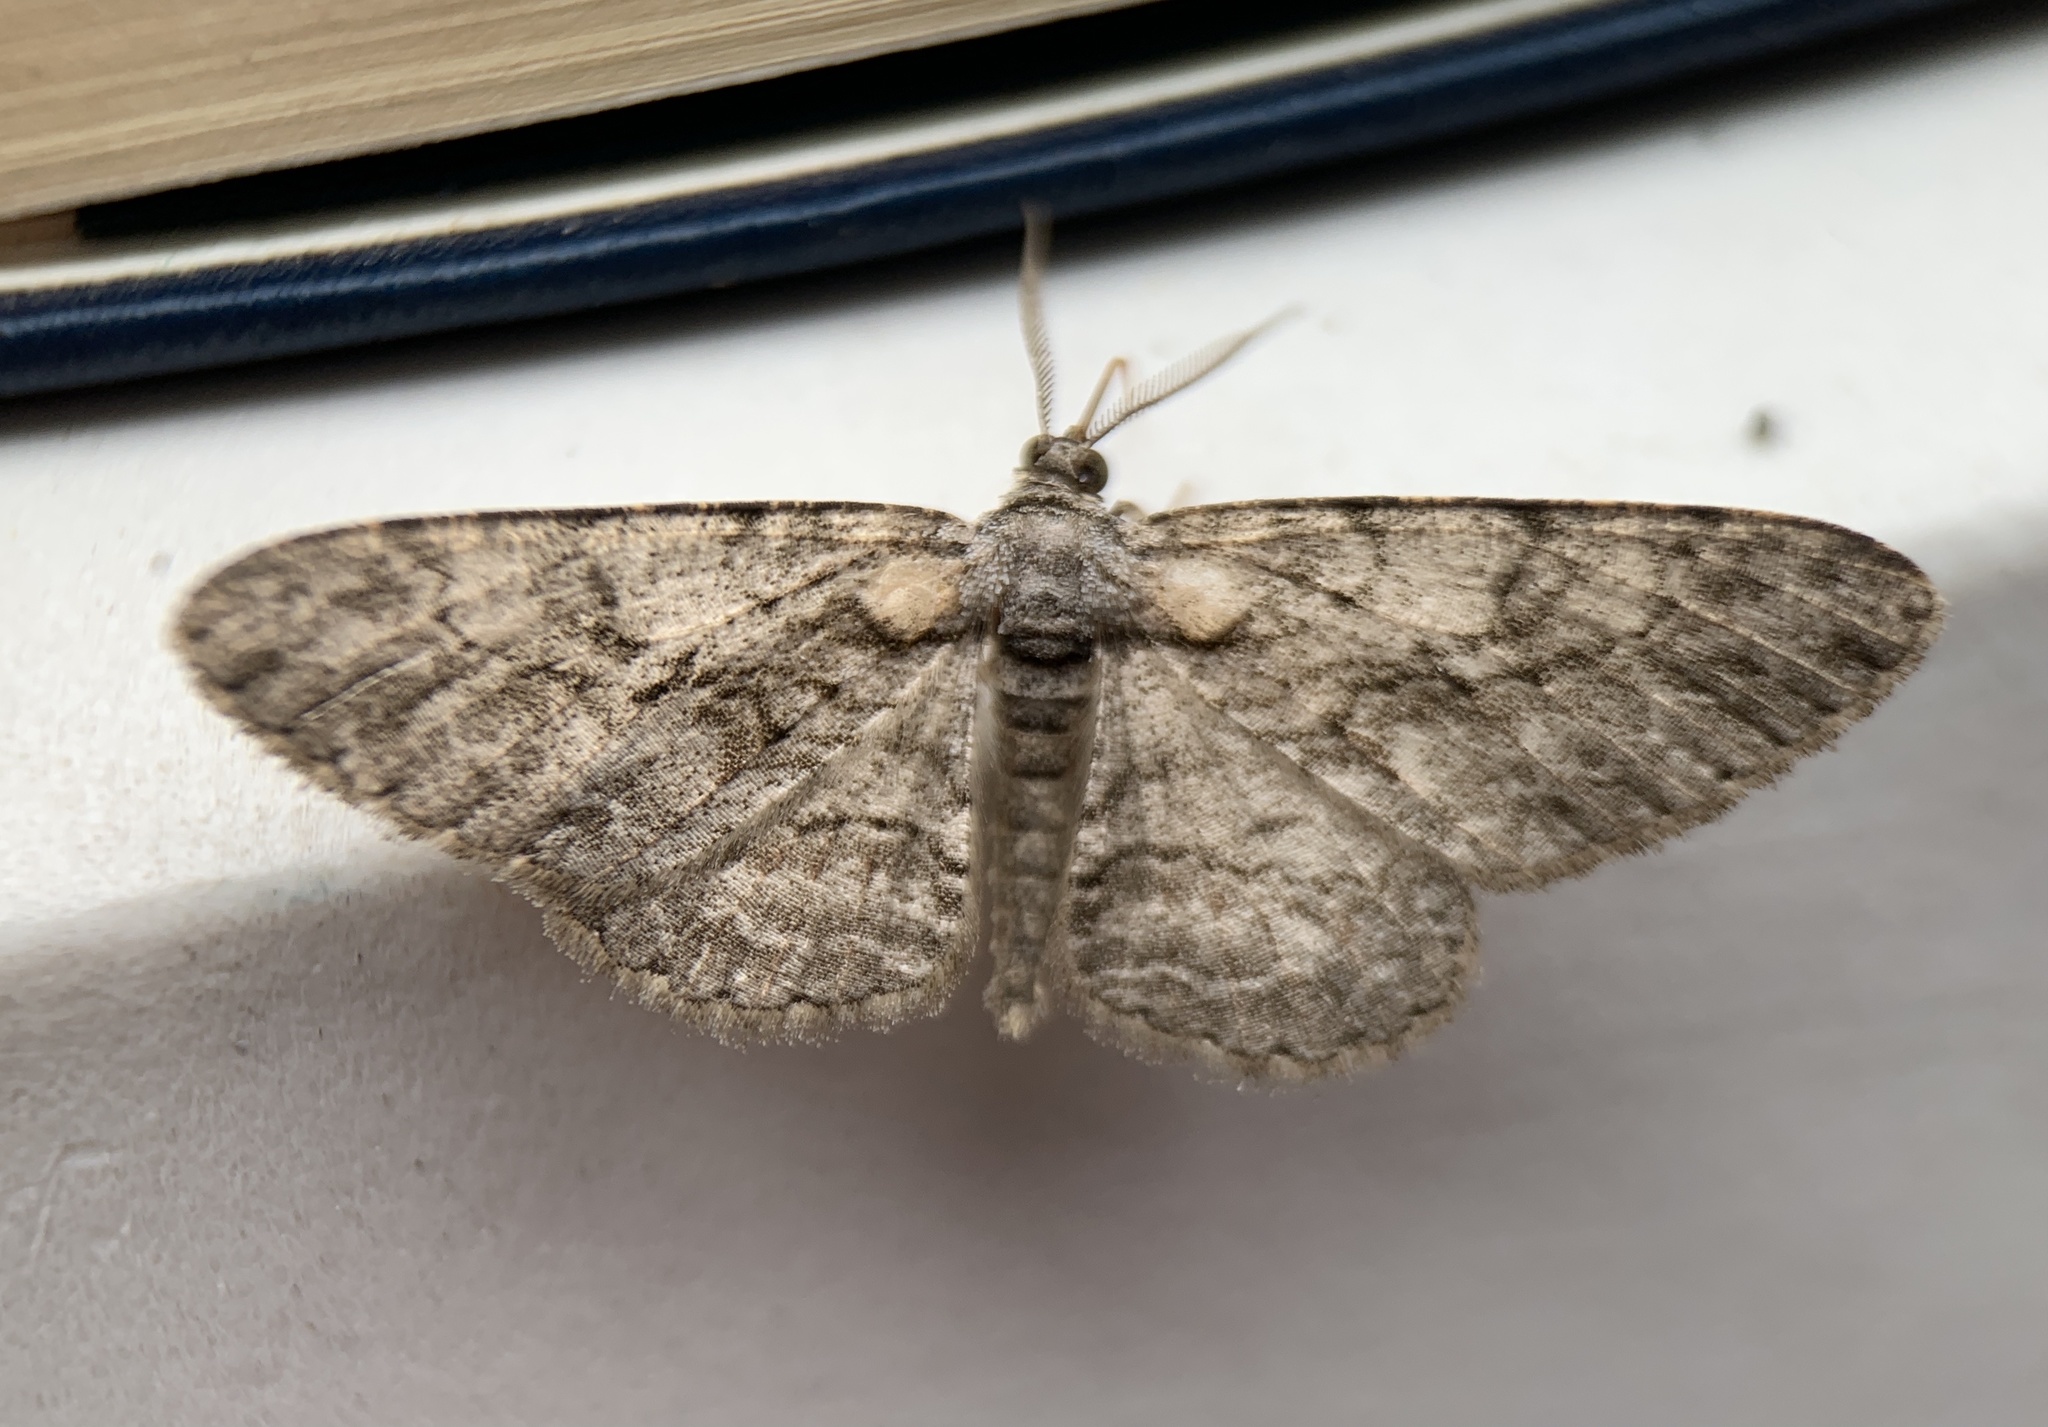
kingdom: Animalia
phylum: Arthropoda
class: Insecta
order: Lepidoptera
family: Geometridae
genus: Anavitrinella
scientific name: Anavitrinella pampinaria
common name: Common gray
